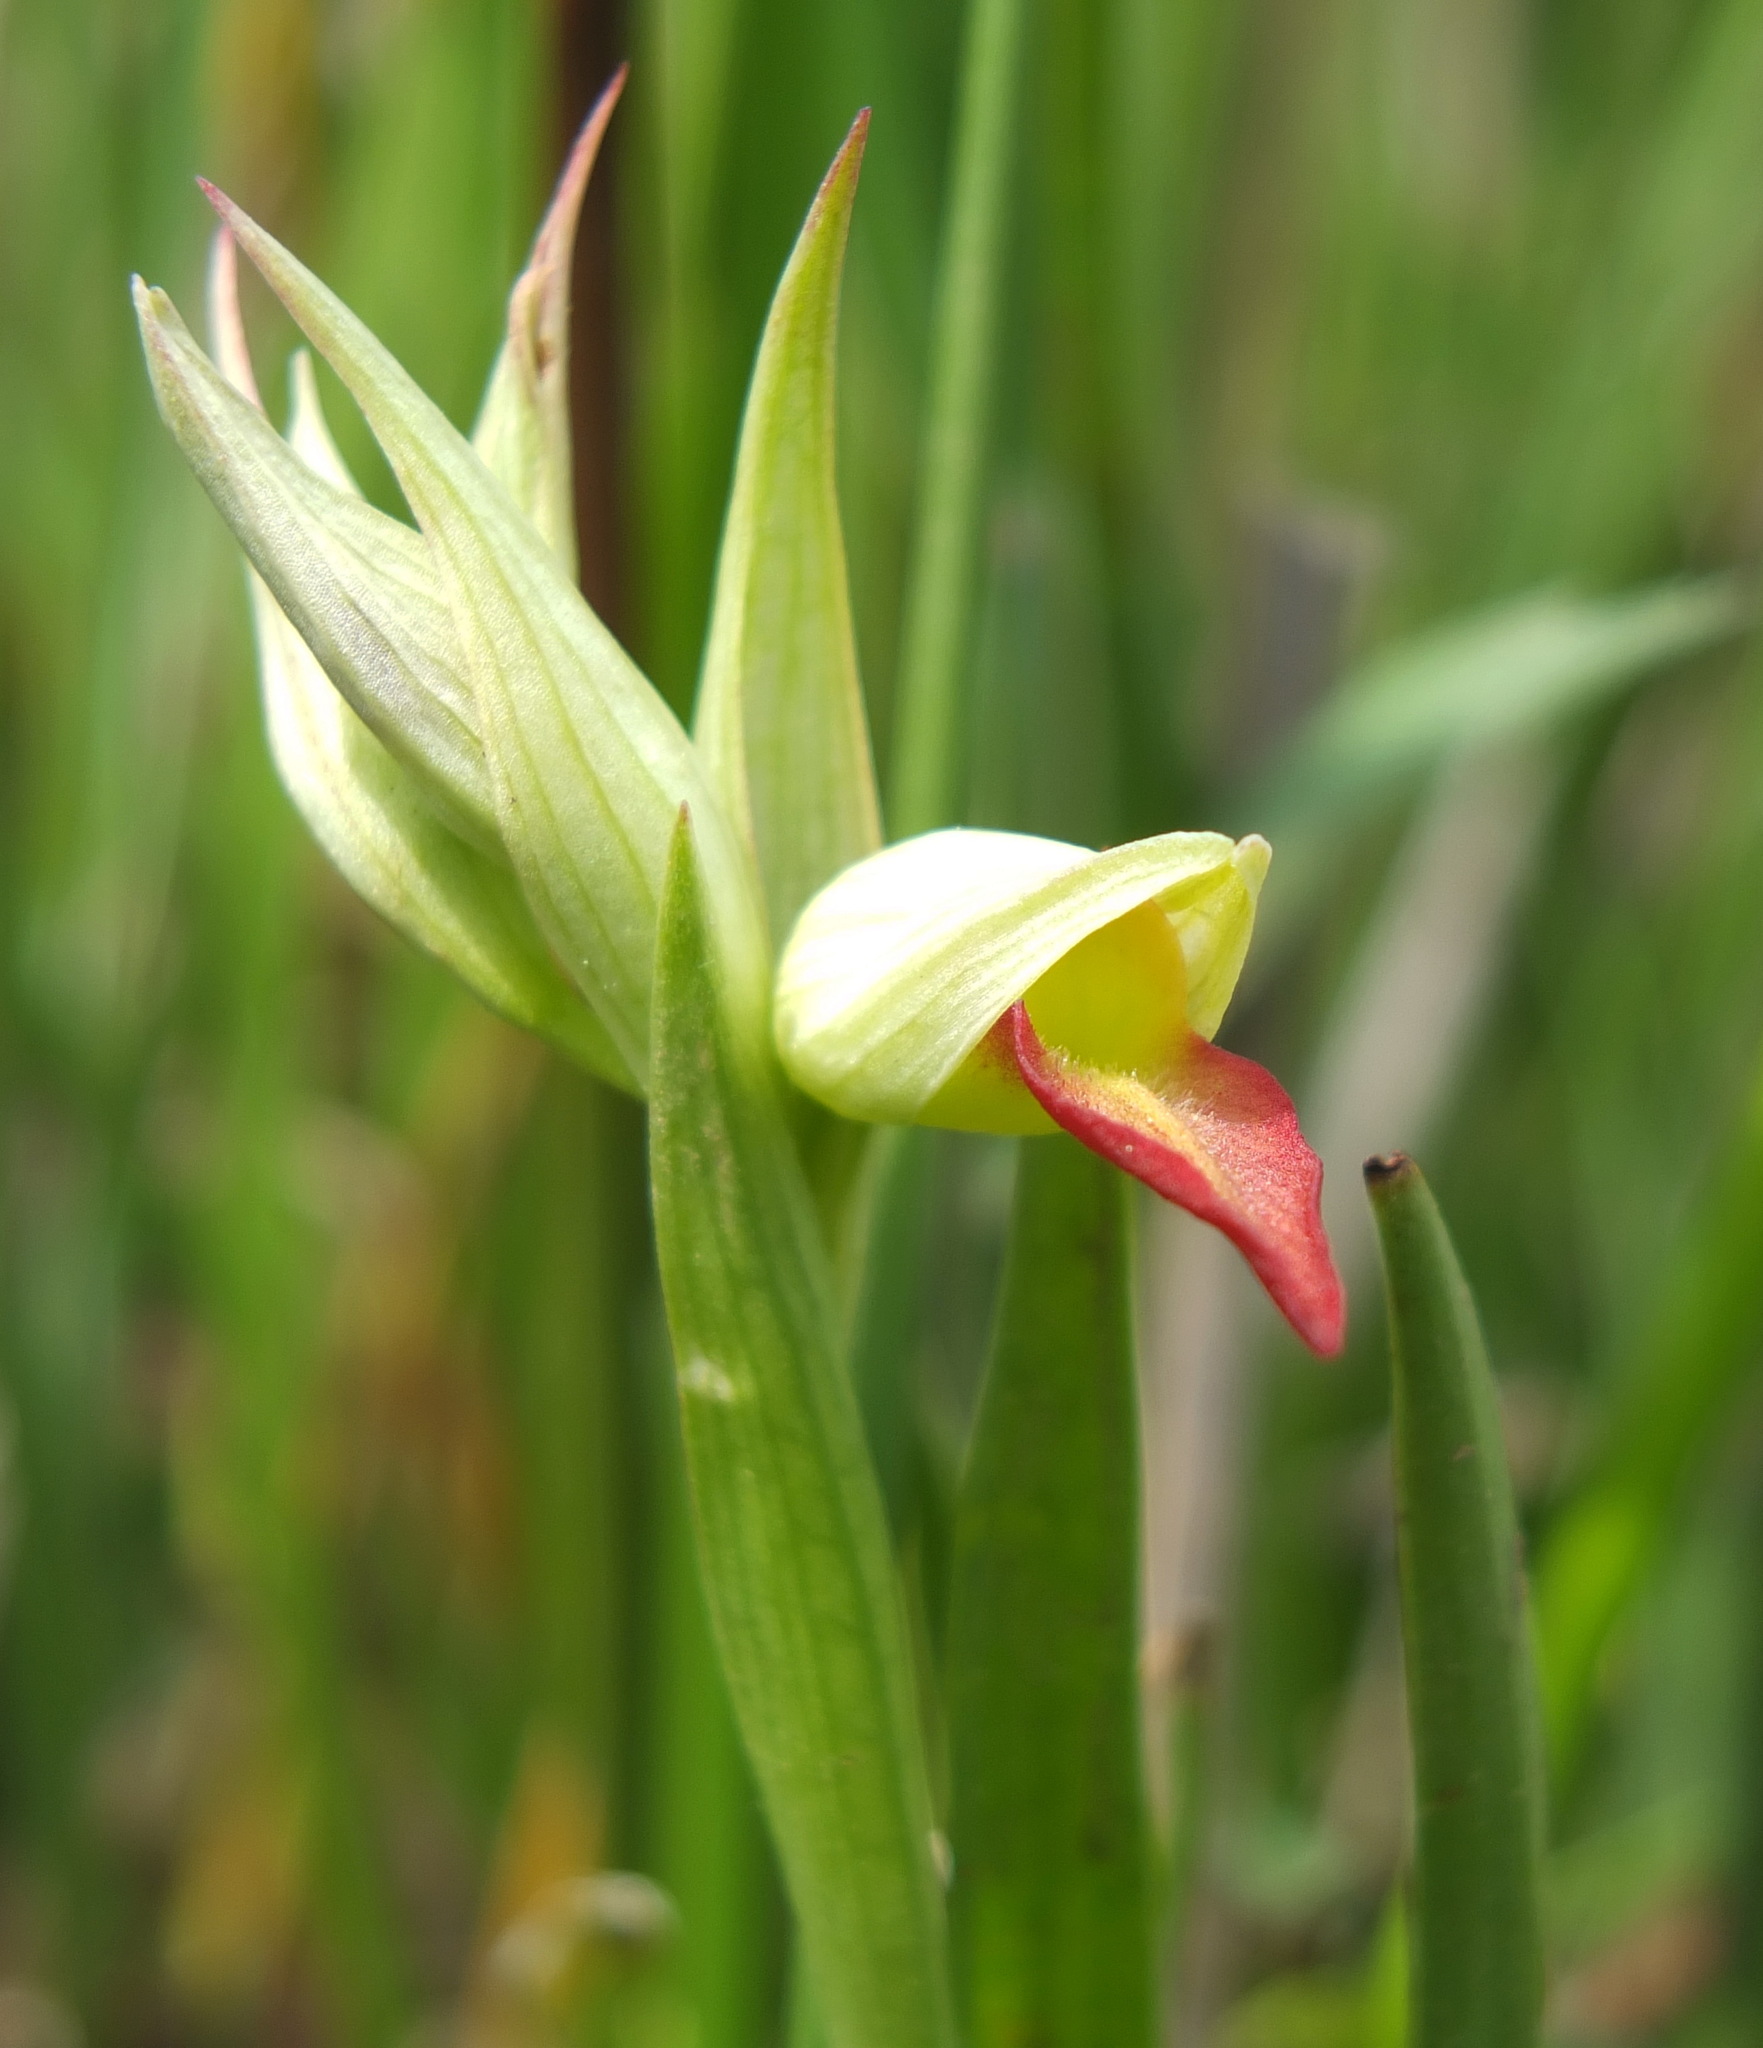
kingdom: Plantae
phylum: Tracheophyta
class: Liliopsida
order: Asparagales
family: Orchidaceae
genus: Serapias
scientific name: Serapias lingua
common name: Tongue-orchid
